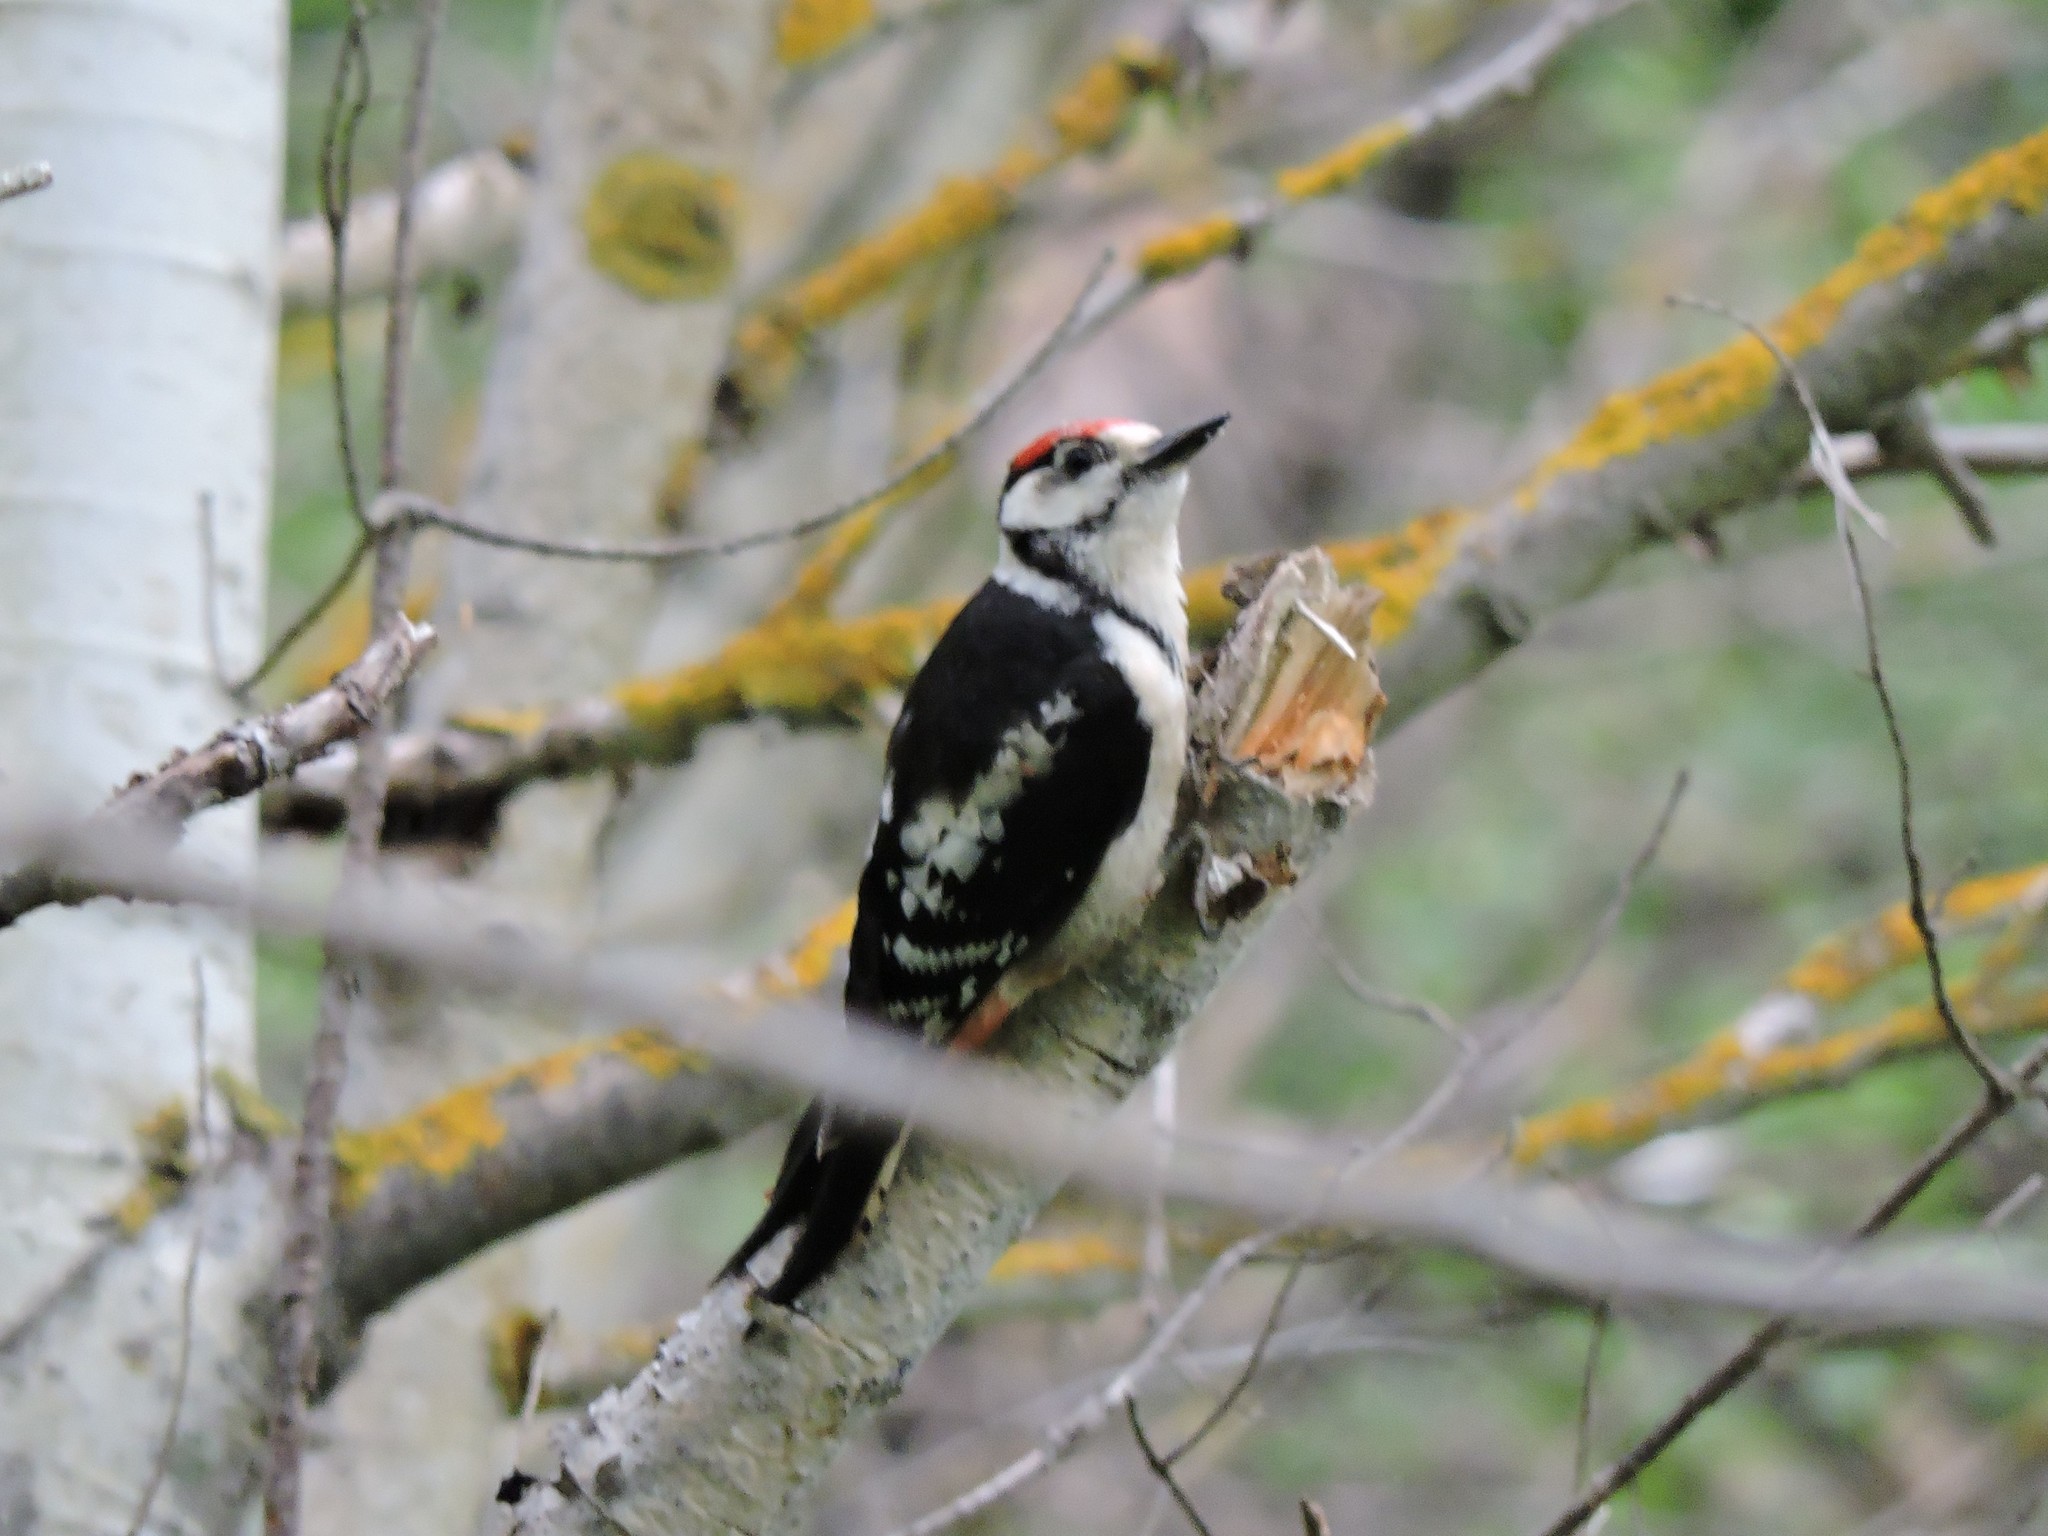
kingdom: Animalia
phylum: Chordata
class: Aves
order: Piciformes
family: Picidae
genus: Dendrocopos
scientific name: Dendrocopos major
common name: Great spotted woodpecker
